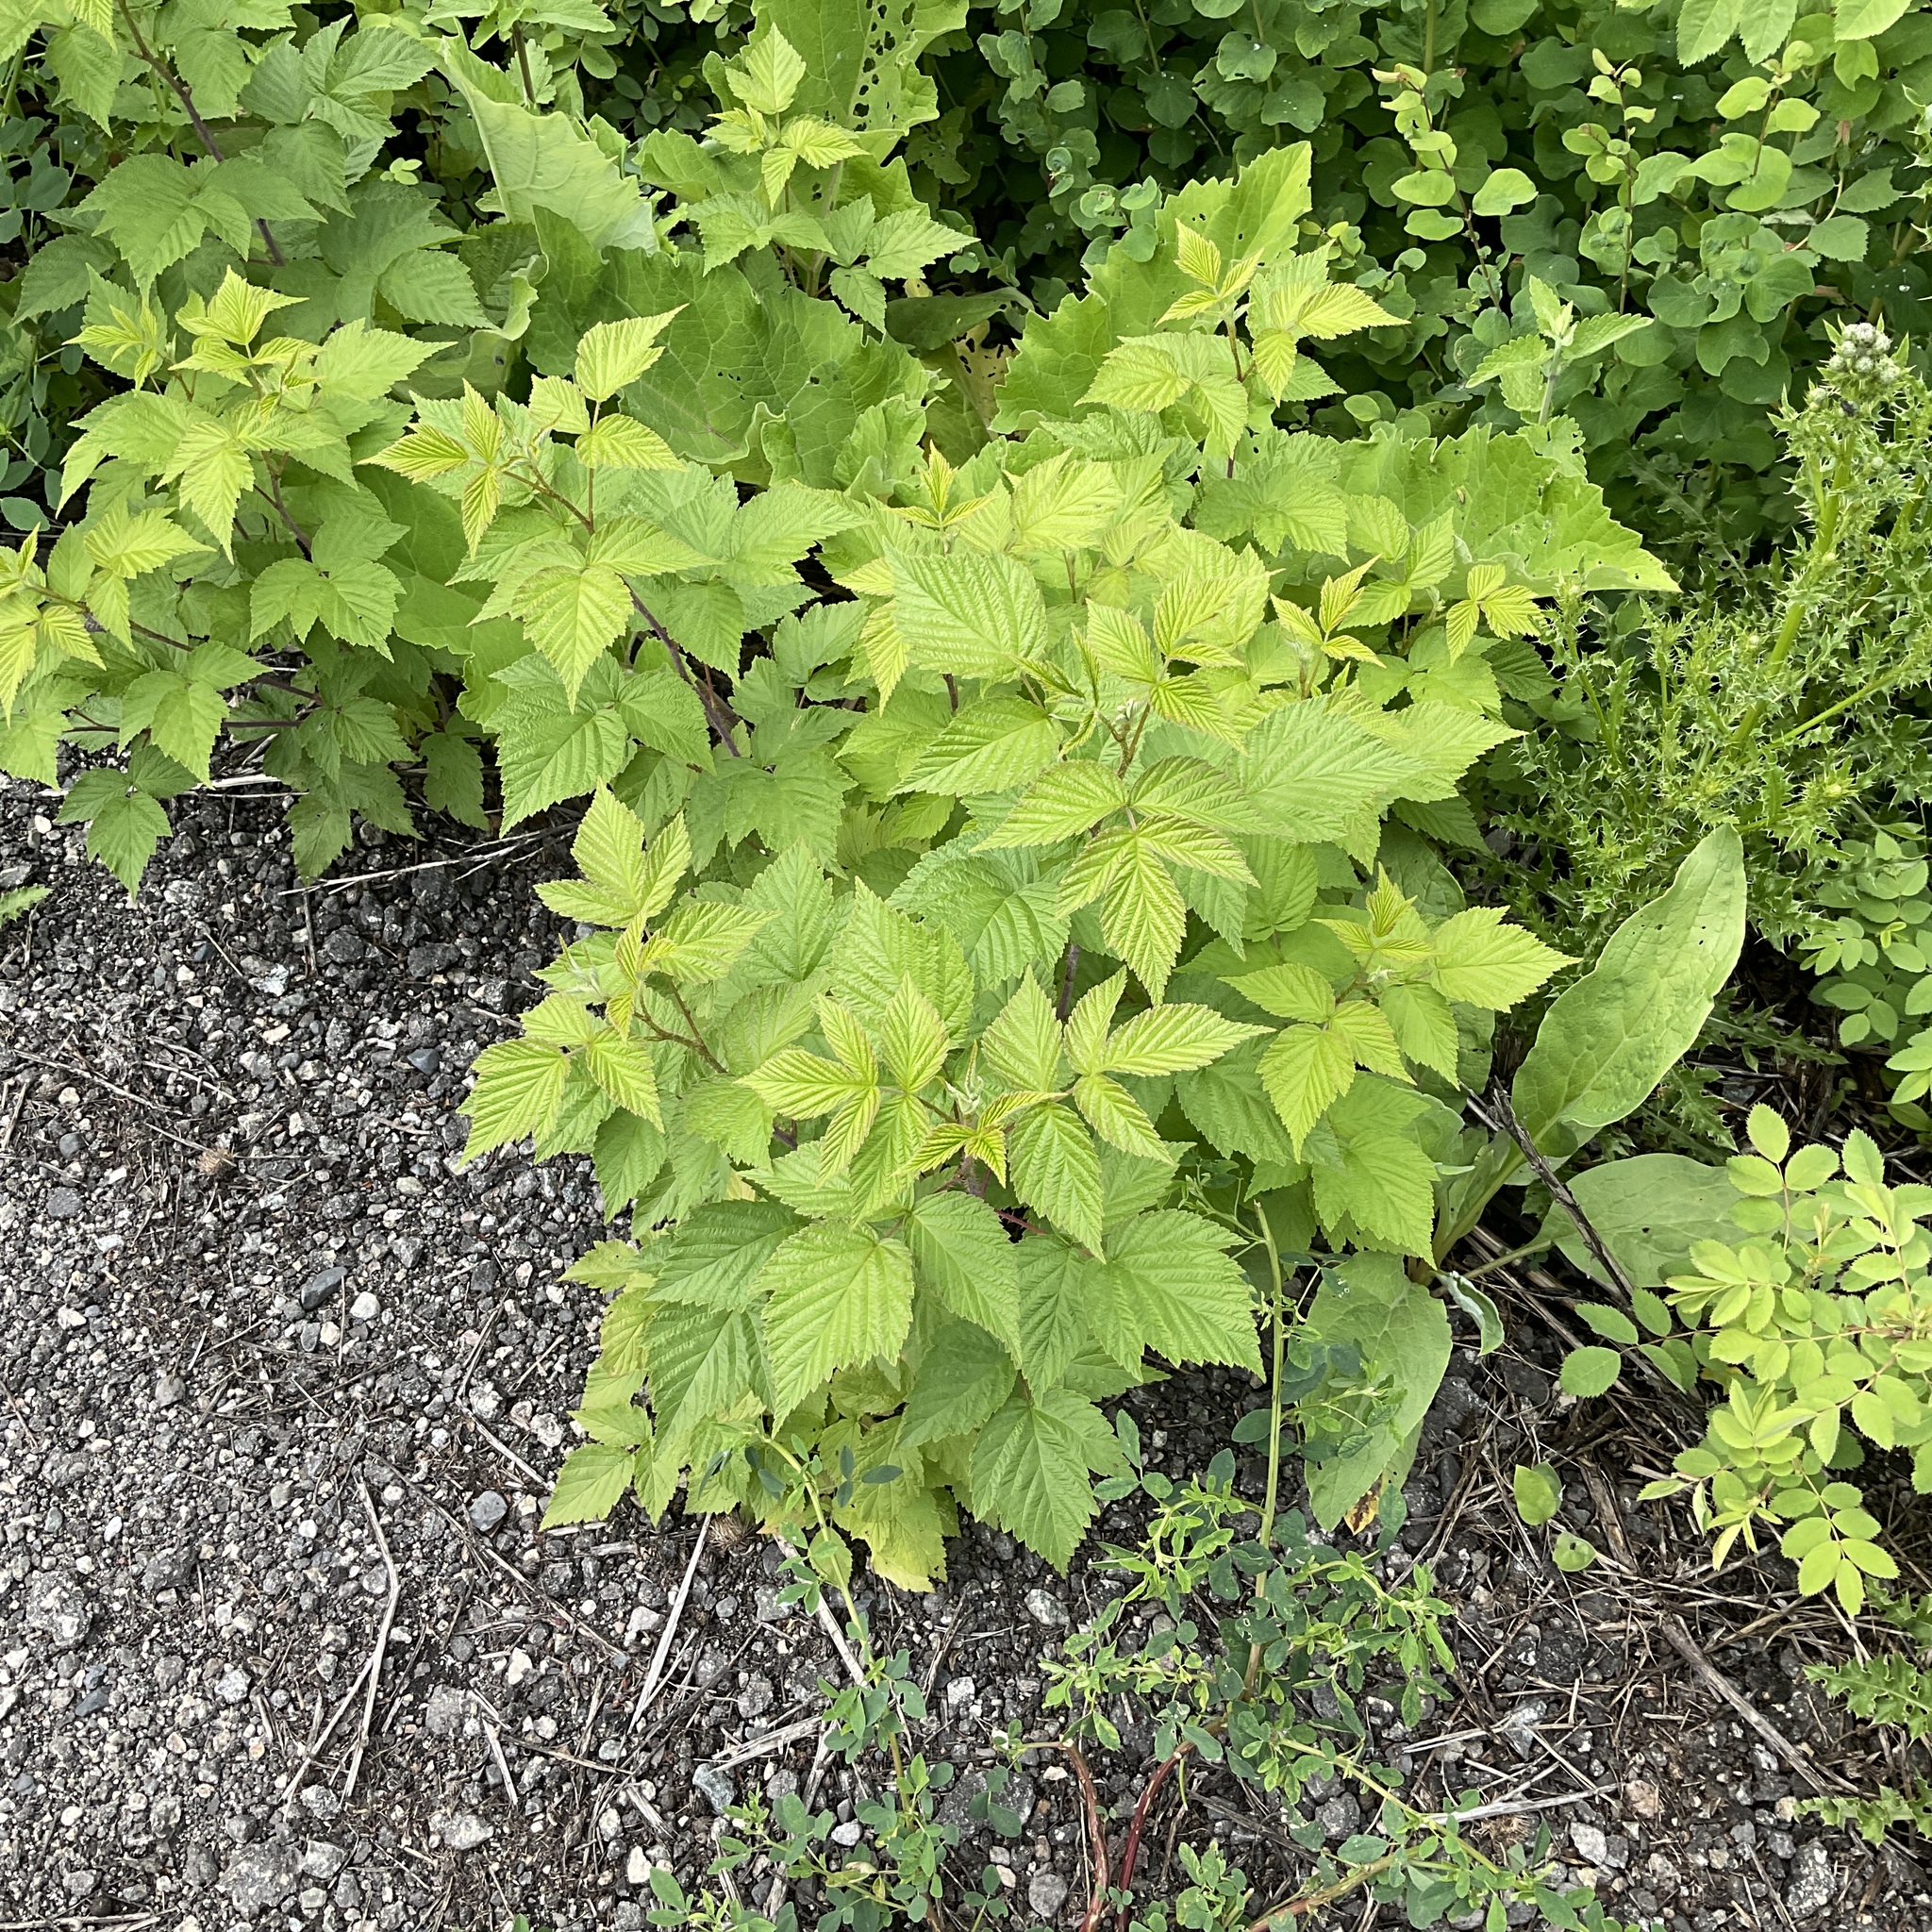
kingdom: Plantae
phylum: Tracheophyta
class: Magnoliopsida
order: Rosales
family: Rosaceae
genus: Rubus
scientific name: Rubus idaeus
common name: Raspberry
